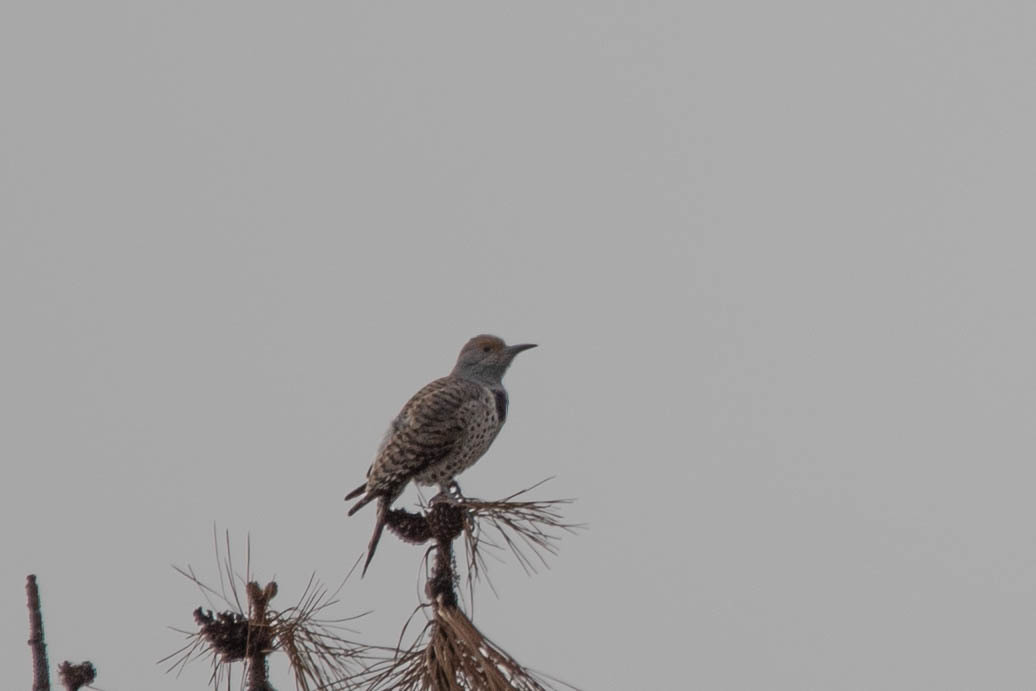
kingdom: Animalia
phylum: Chordata
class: Aves
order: Piciformes
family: Picidae
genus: Colaptes
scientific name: Colaptes auratus
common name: Northern flicker
